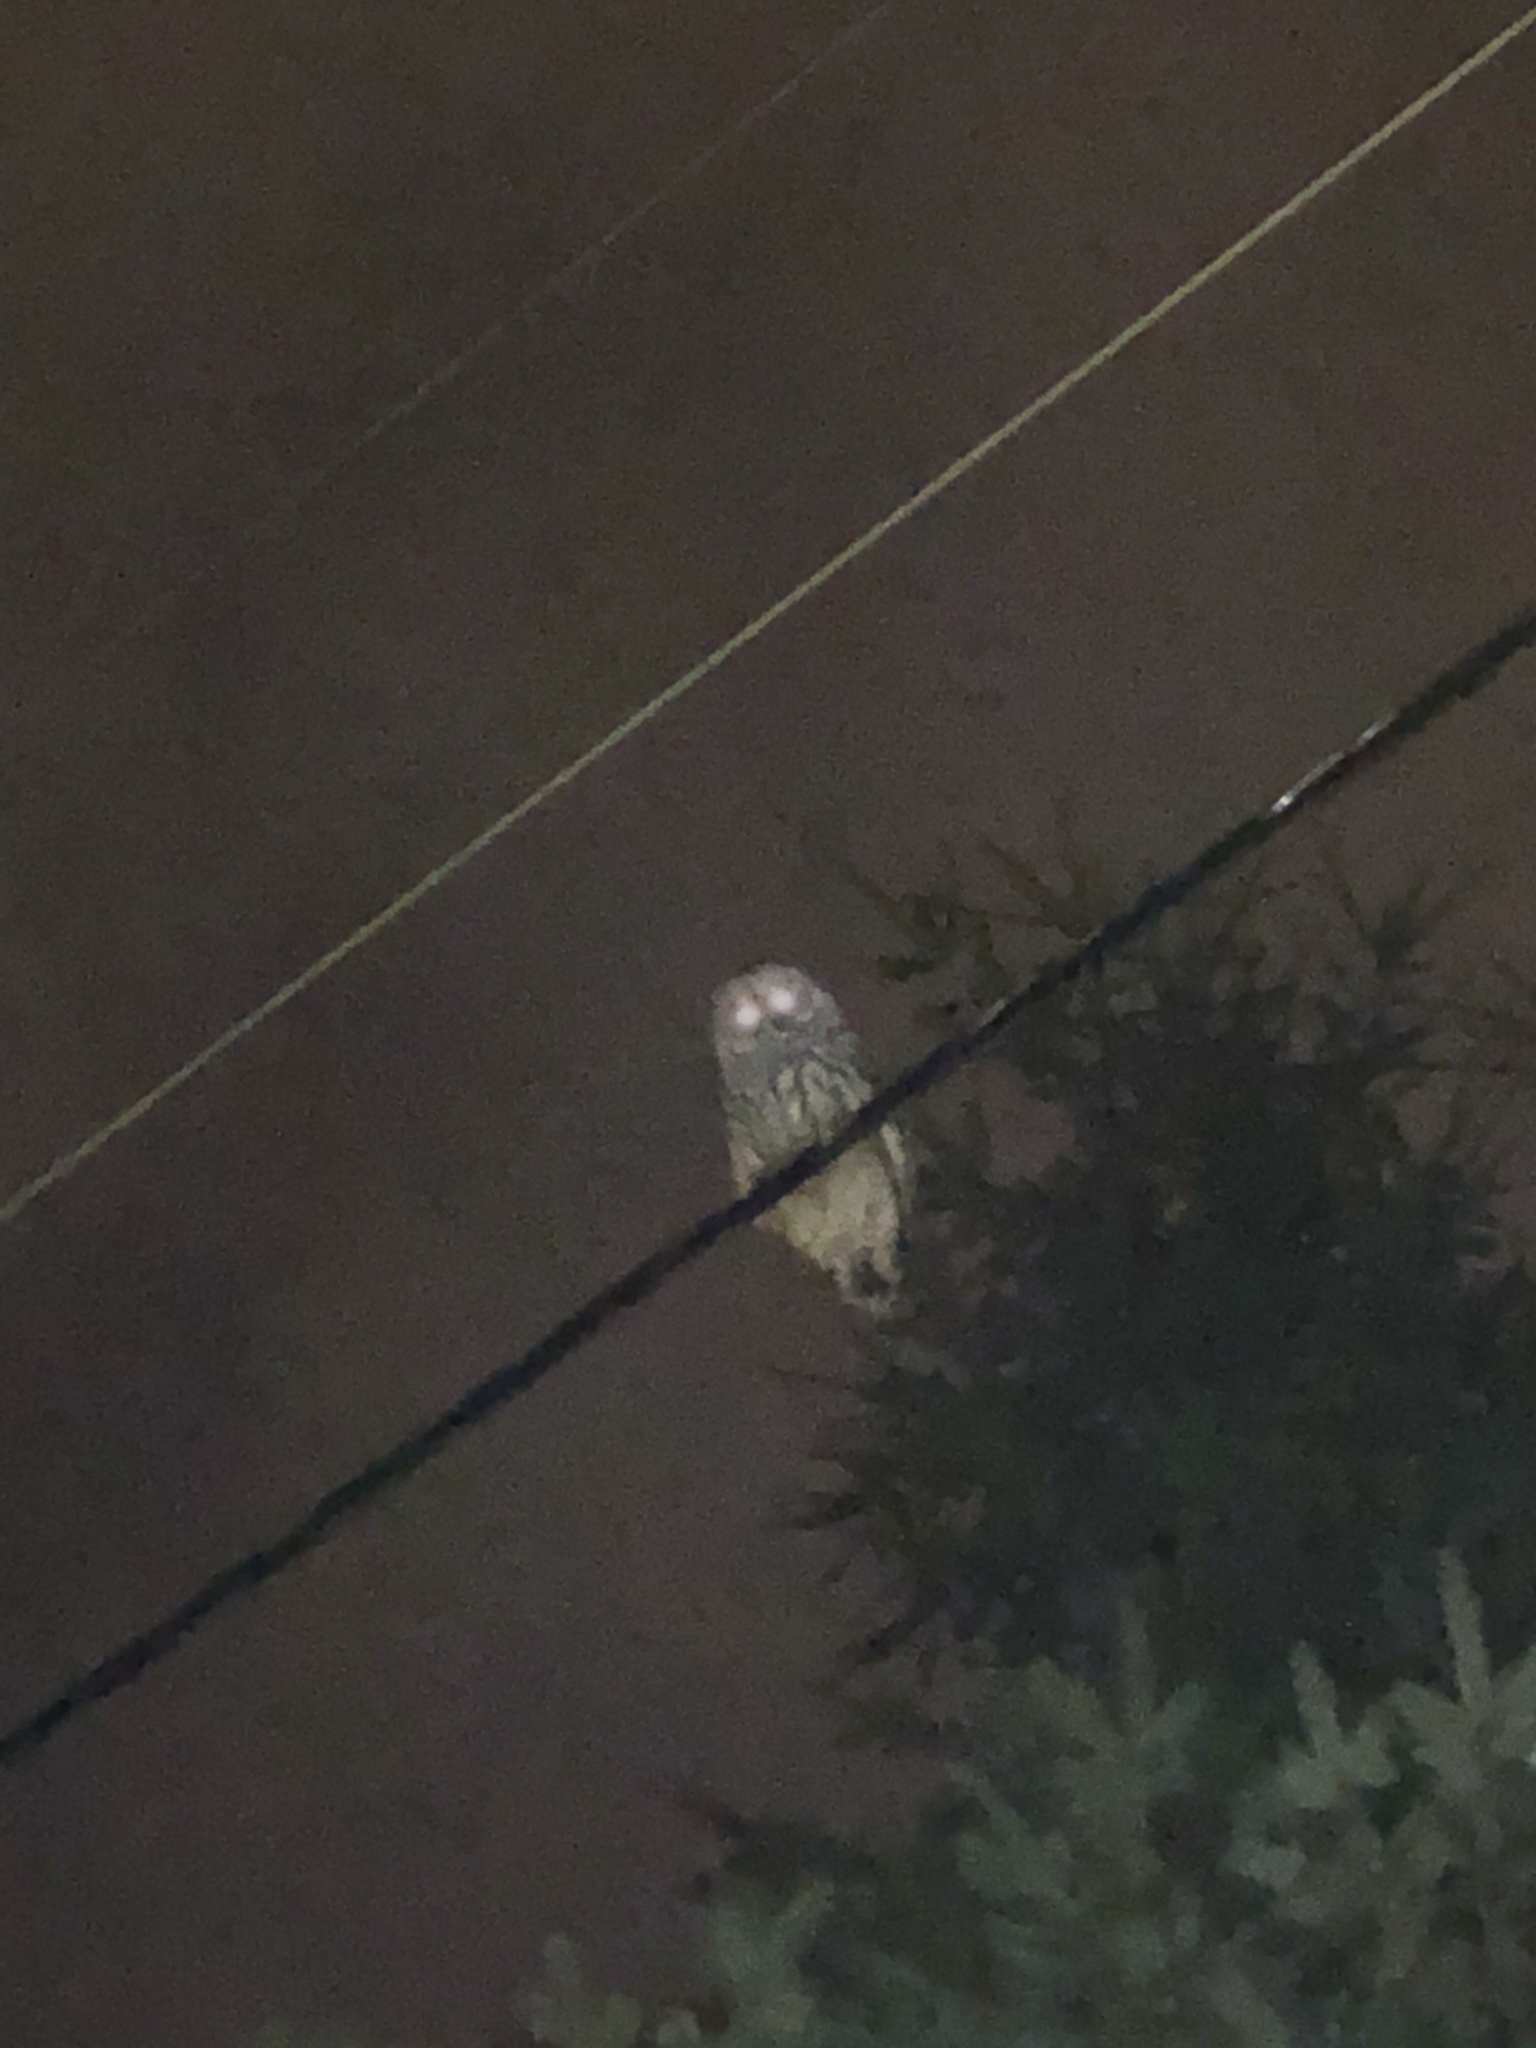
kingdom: Animalia
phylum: Chordata
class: Aves
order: Strigiformes
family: Strigidae
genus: Strix
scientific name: Strix varia
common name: Barred owl
